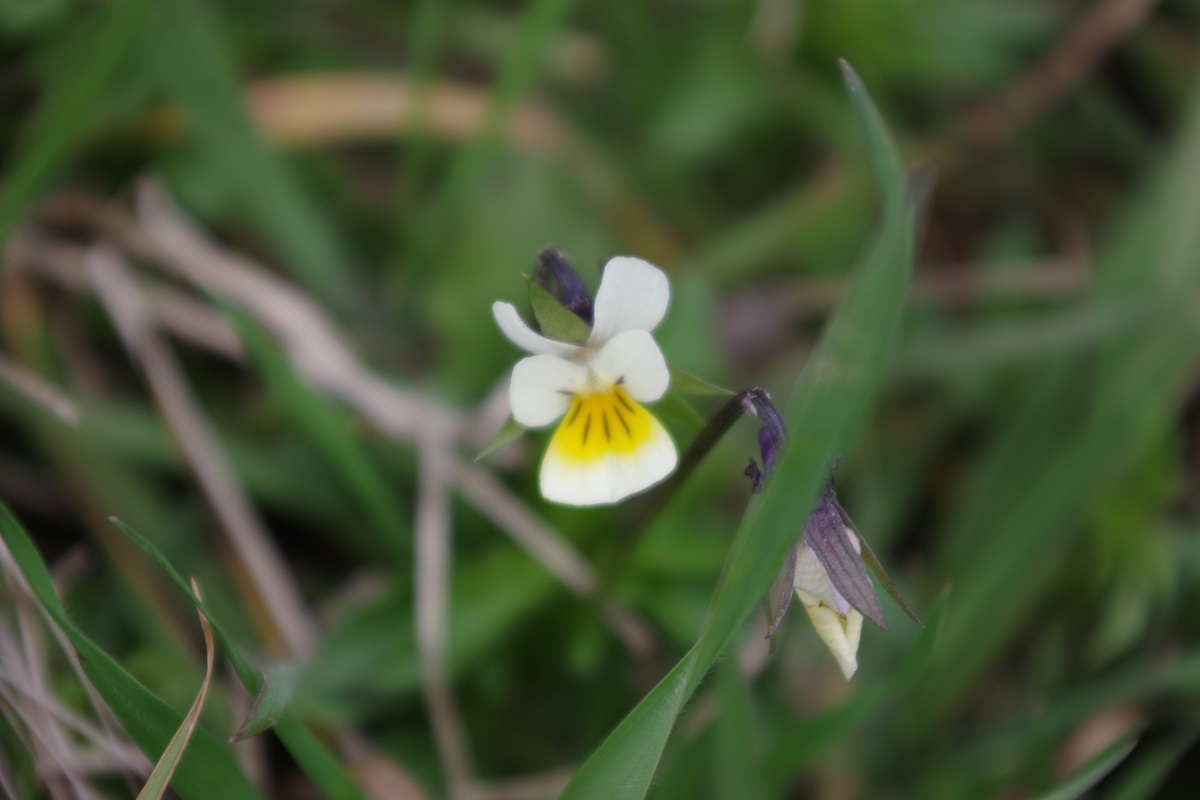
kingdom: Plantae
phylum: Tracheophyta
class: Magnoliopsida
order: Malpighiales
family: Violaceae
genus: Viola
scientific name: Viola arvensis
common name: Field pansy
